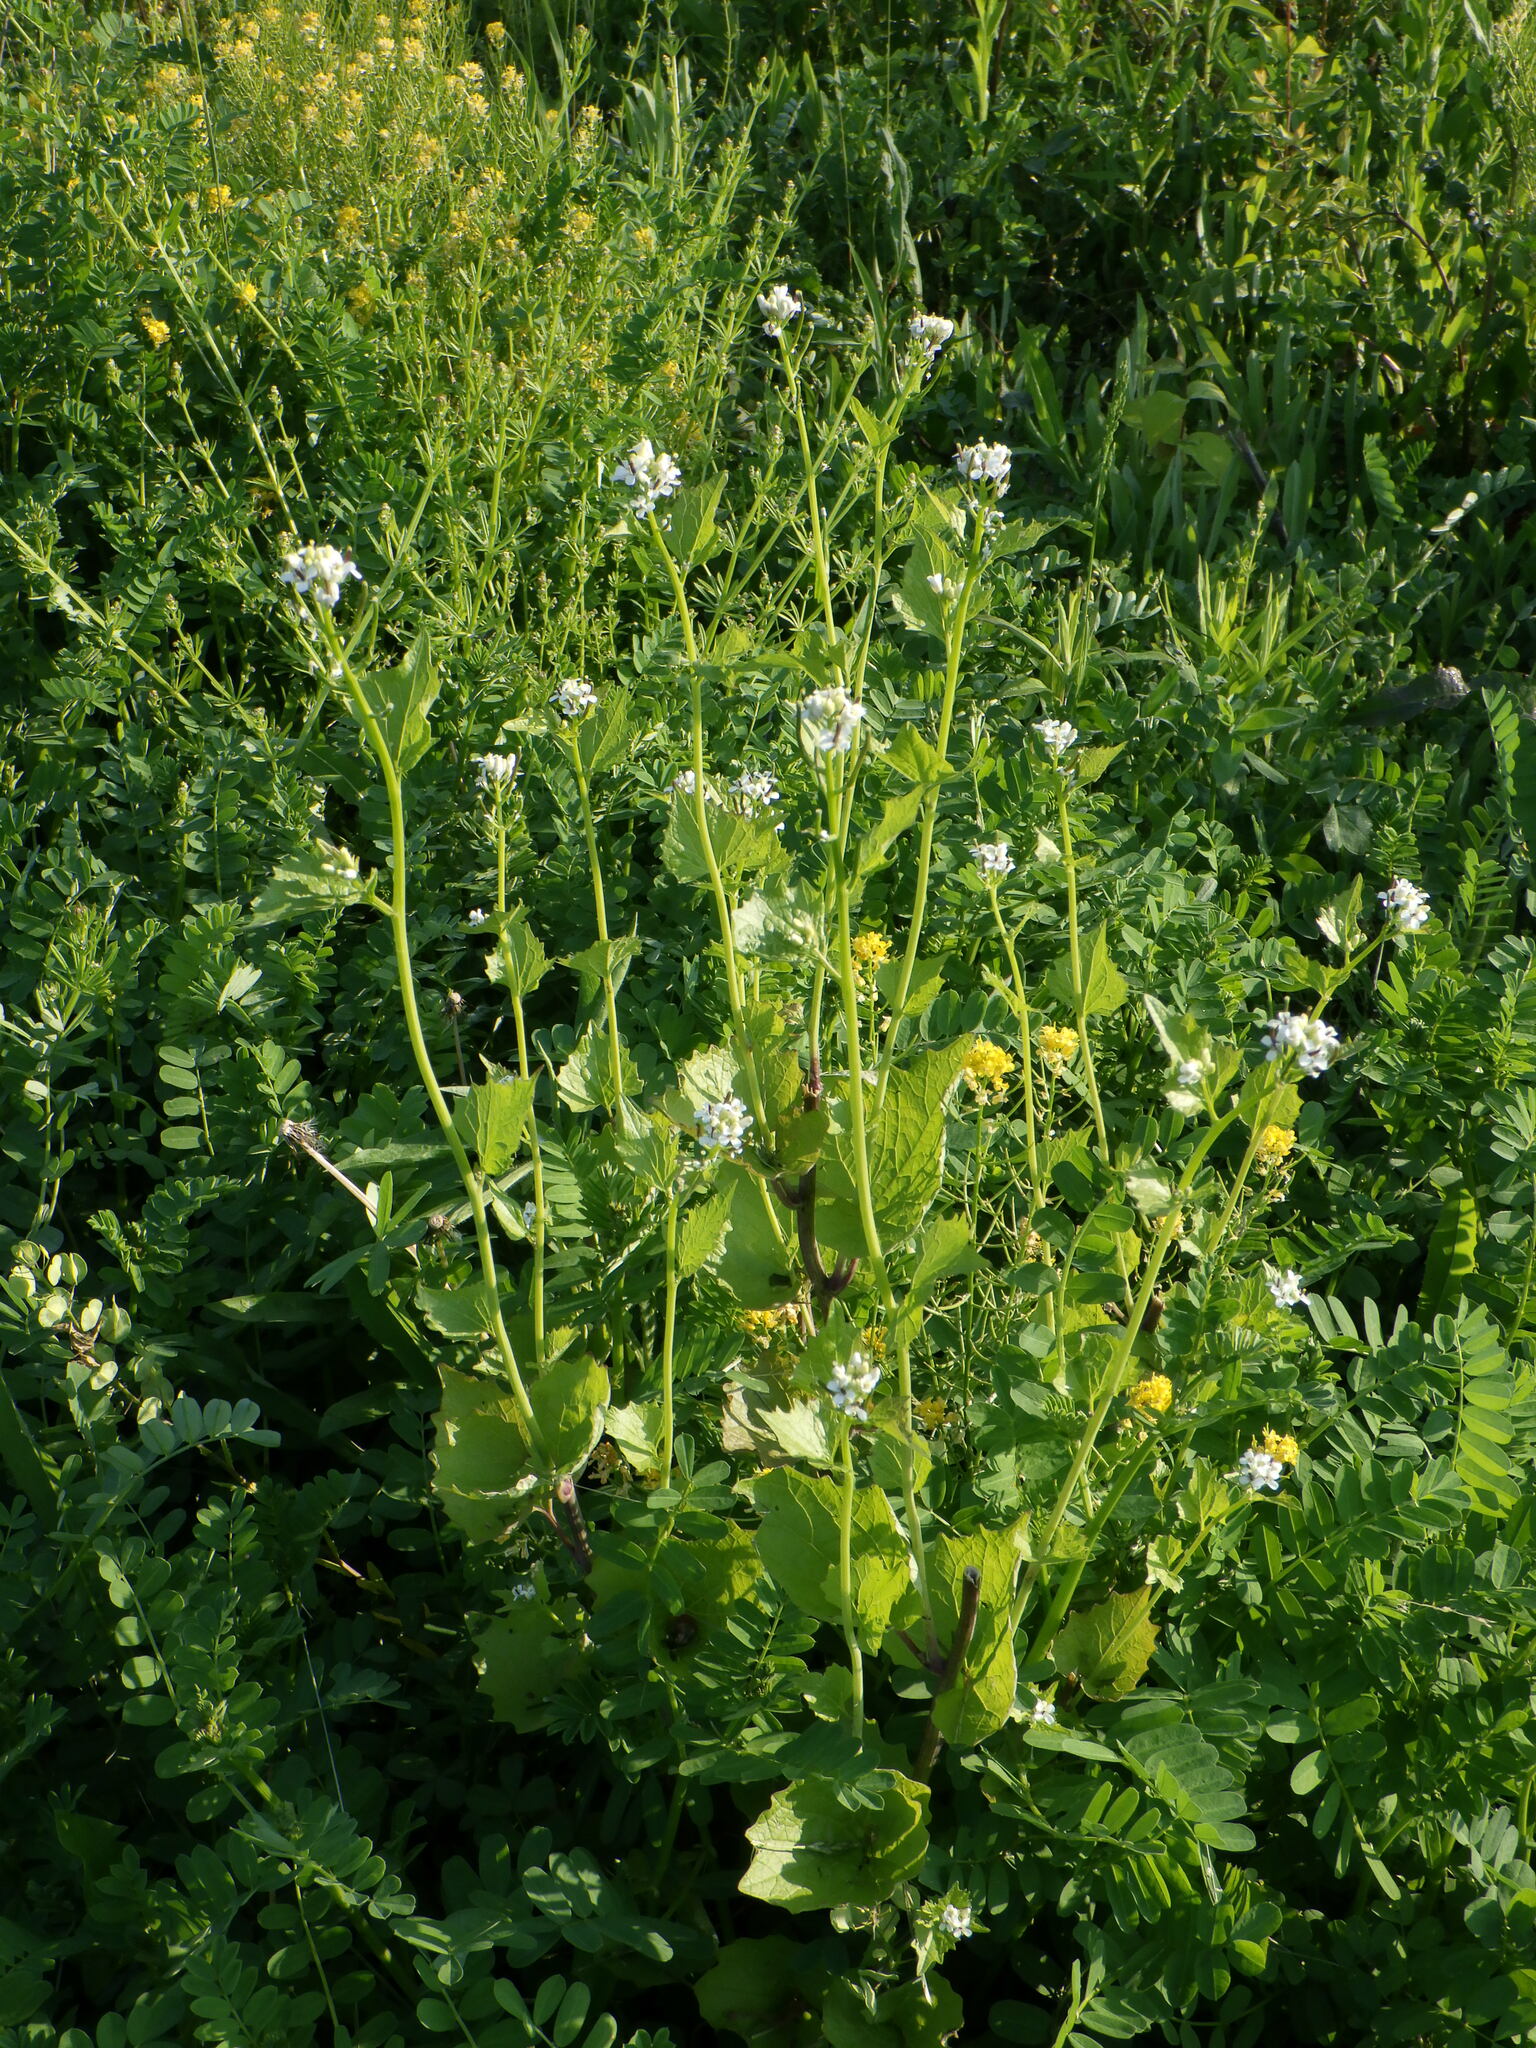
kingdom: Plantae
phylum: Tracheophyta
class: Magnoliopsida
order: Brassicales
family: Brassicaceae
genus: Alliaria
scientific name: Alliaria petiolata
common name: Garlic mustard
